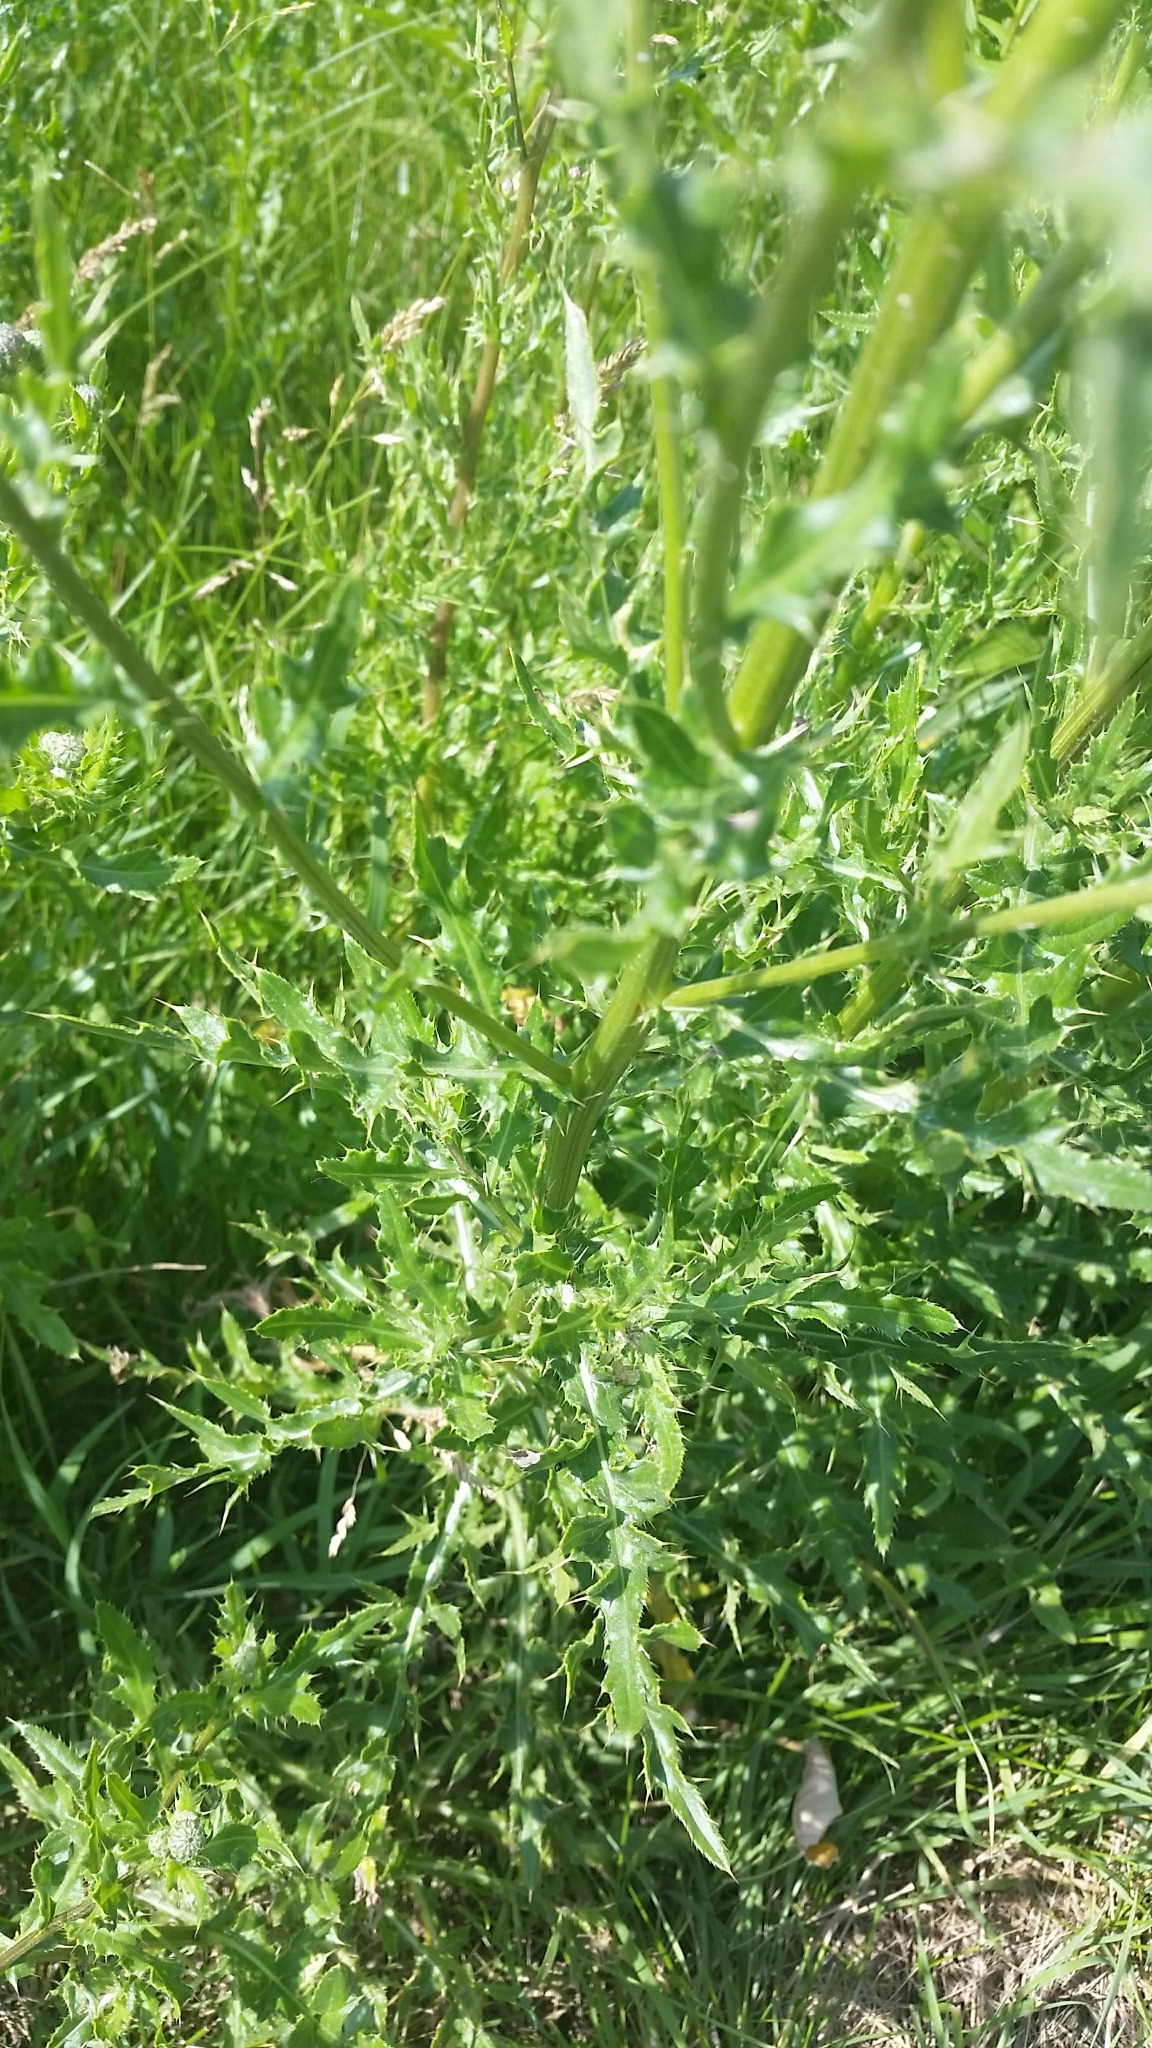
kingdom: Plantae
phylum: Tracheophyta
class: Magnoliopsida
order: Asterales
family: Asteraceae
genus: Cirsium
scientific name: Cirsium arvense
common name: Creeping thistle
